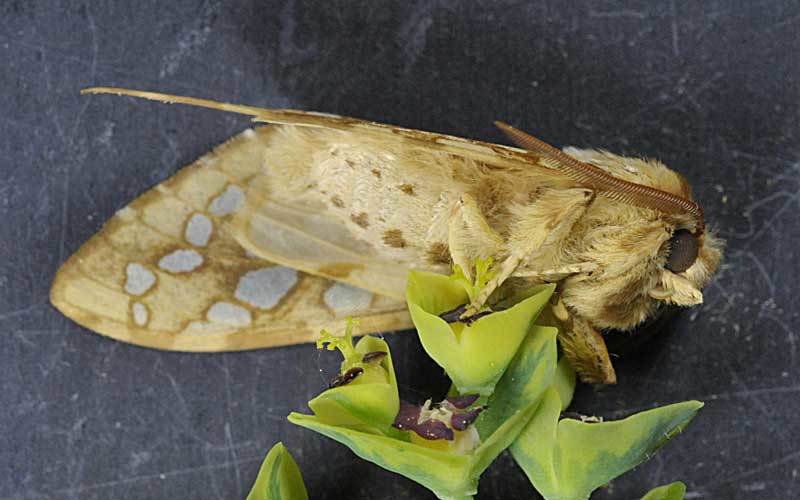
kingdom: Animalia
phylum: Arthropoda
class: Insecta
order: Lepidoptera
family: Erebidae
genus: Lophocampa
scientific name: Lophocampa caryae
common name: Hickory tussock moth
